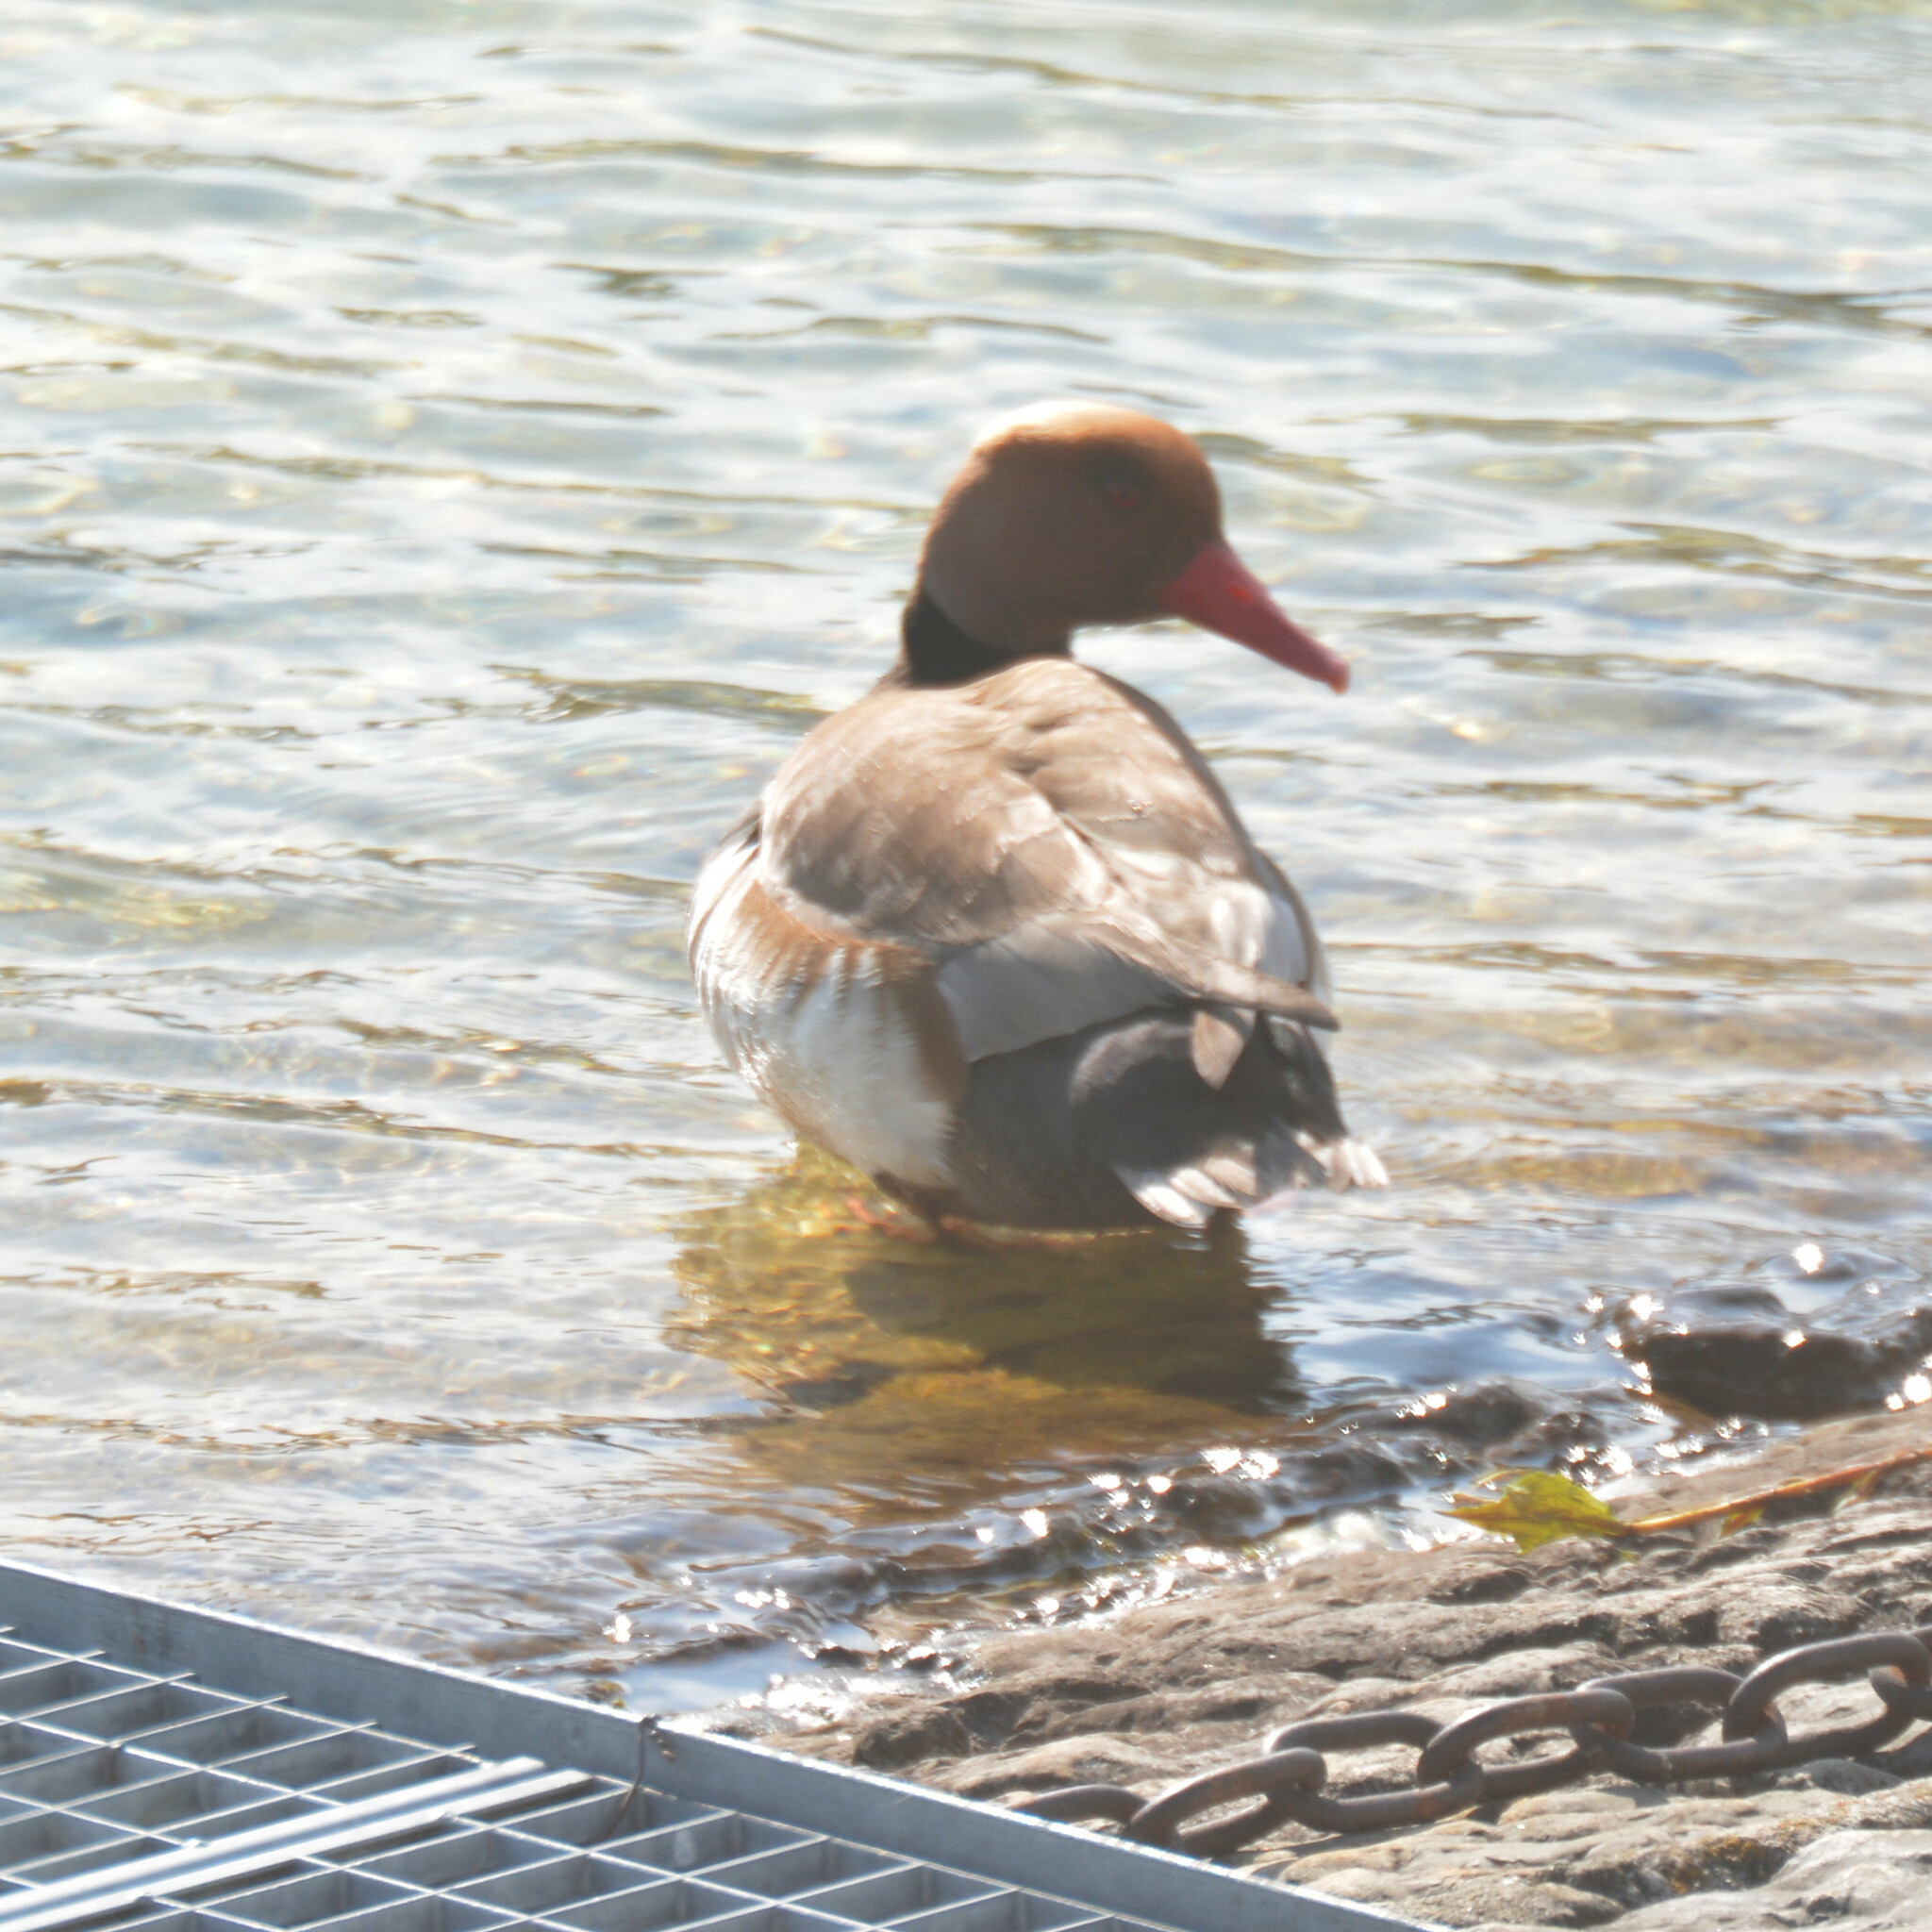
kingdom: Animalia
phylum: Chordata
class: Aves
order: Anseriformes
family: Anatidae
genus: Netta
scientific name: Netta rufina
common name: Red-crested pochard
